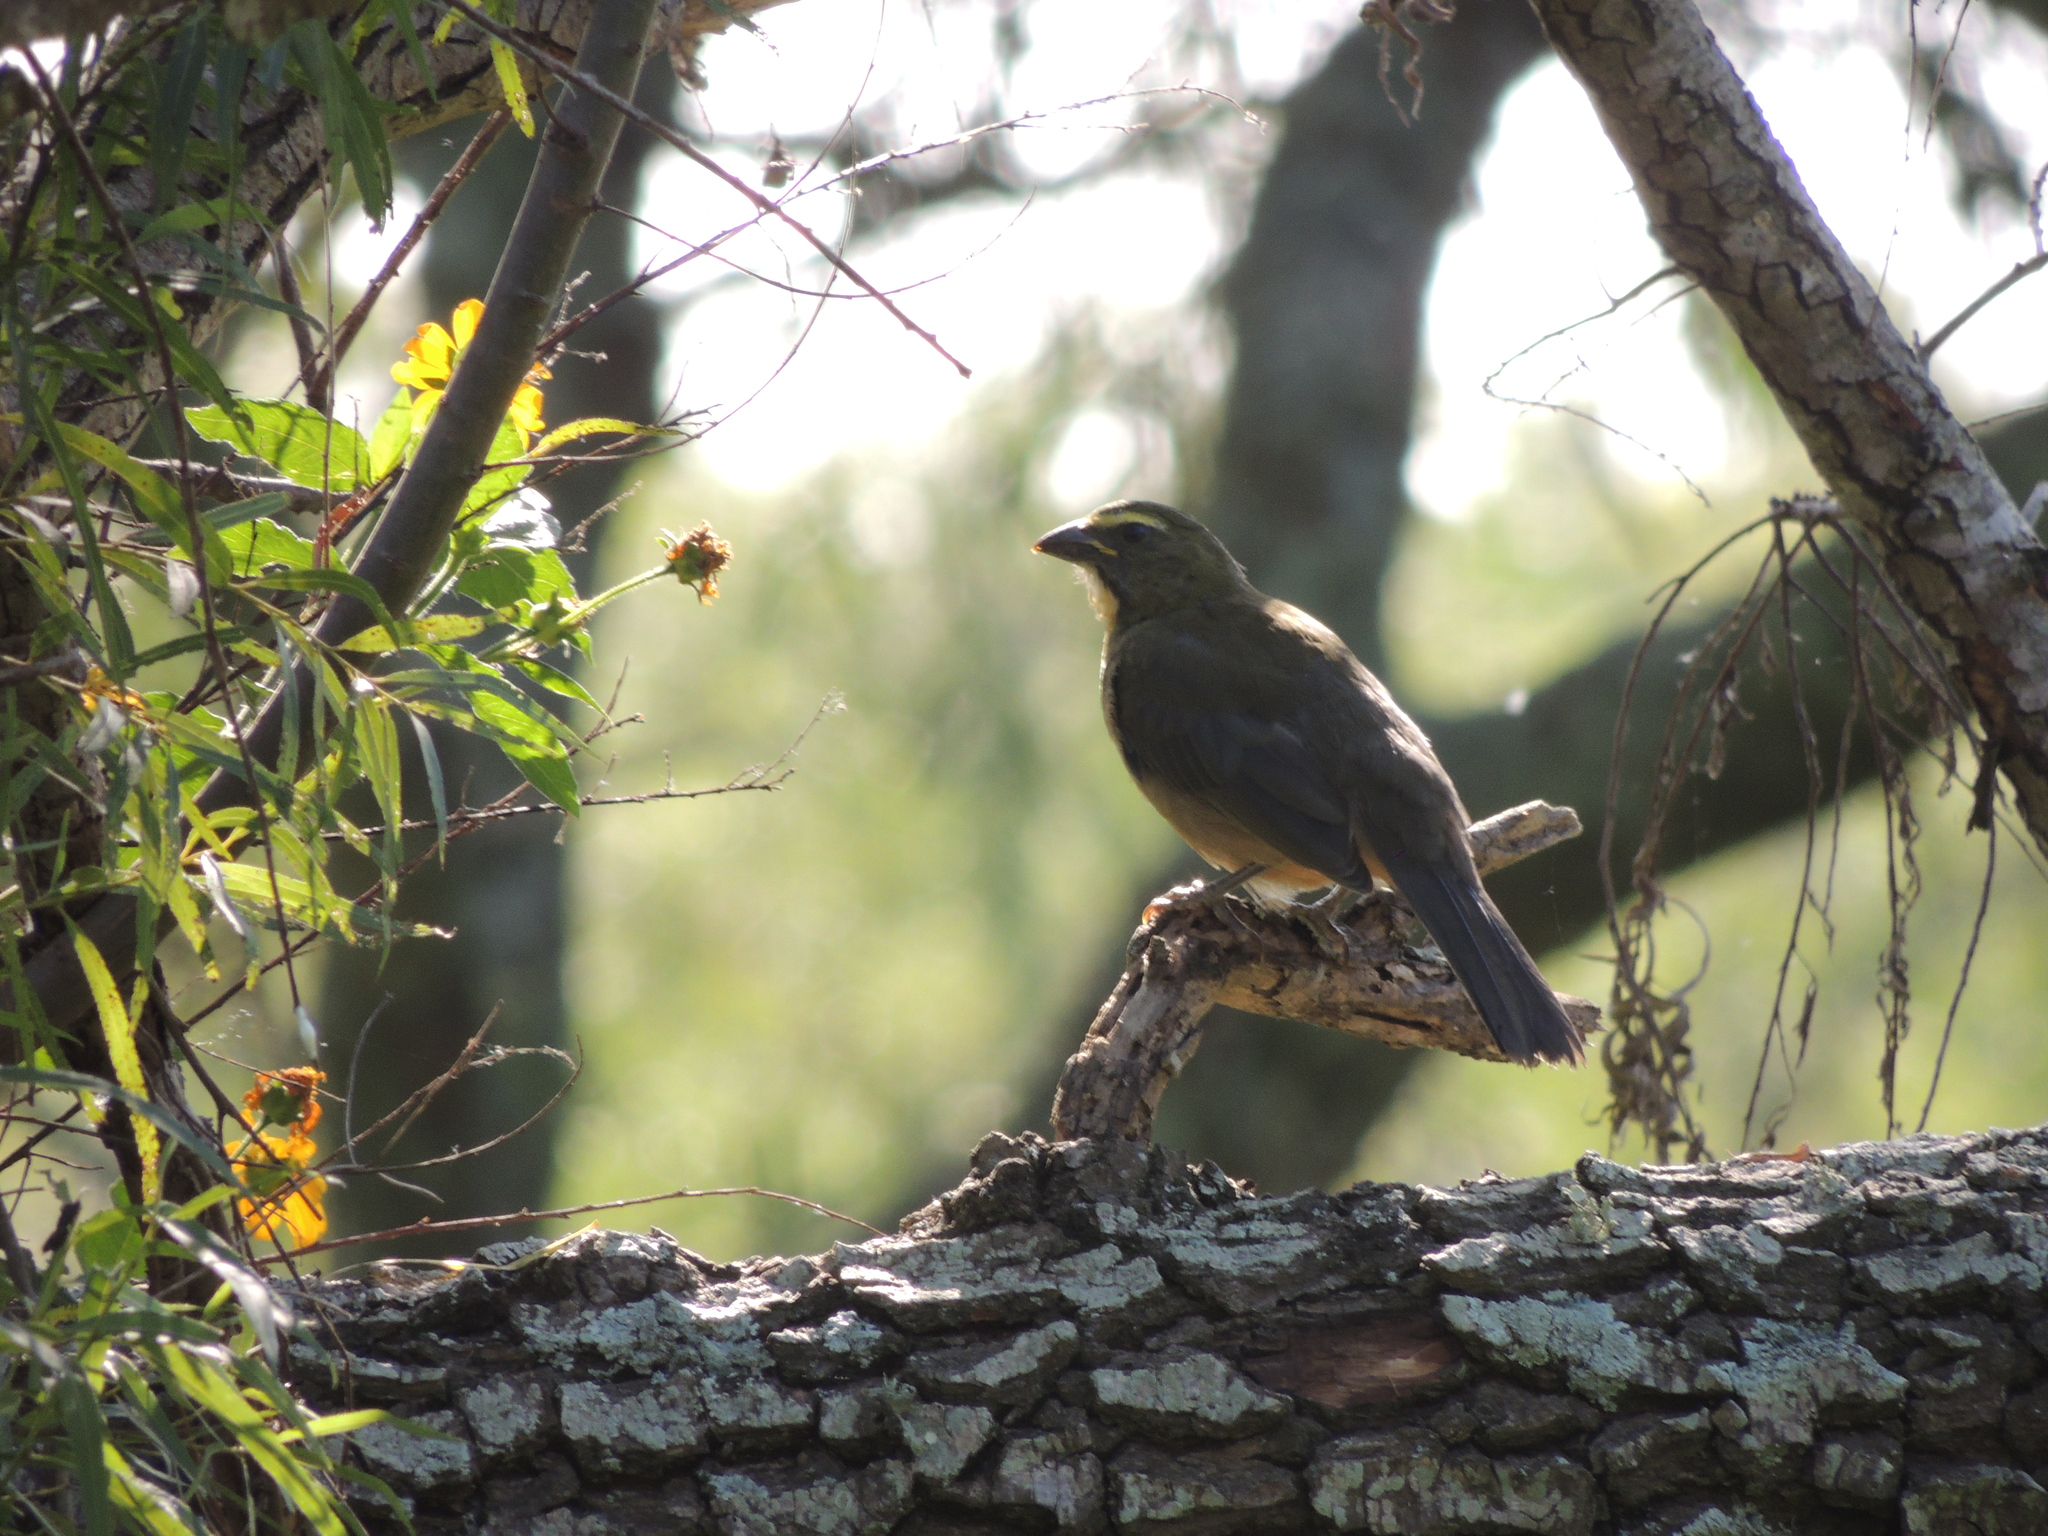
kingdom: Animalia
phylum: Chordata
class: Aves
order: Passeriformes
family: Thraupidae
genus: Saltator
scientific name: Saltator coerulescens
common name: Grayish saltator
